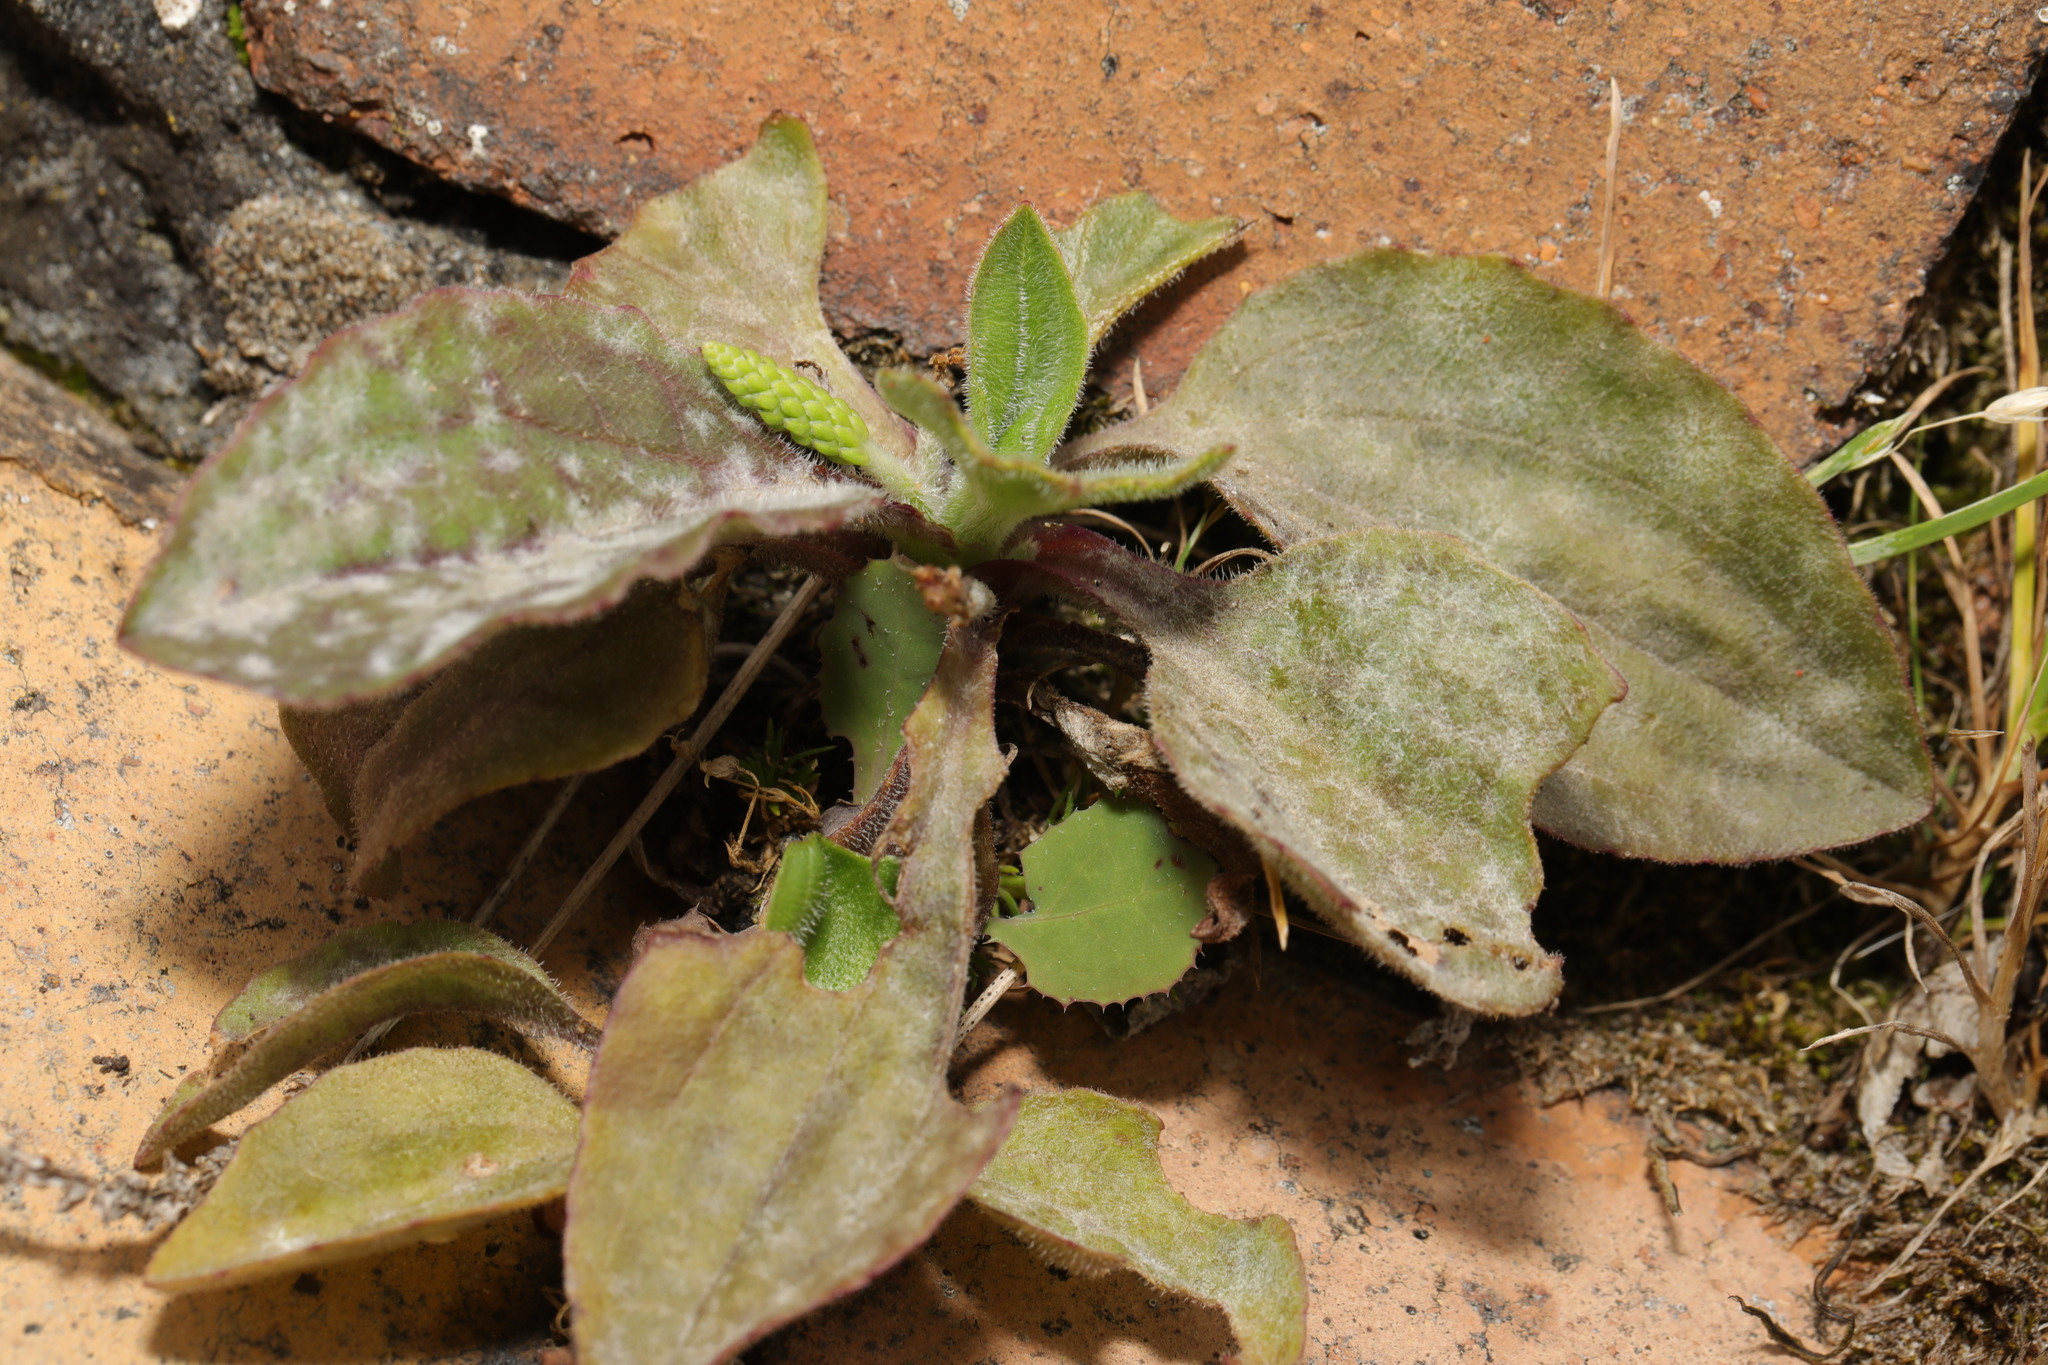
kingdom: Plantae
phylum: Tracheophyta
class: Magnoliopsida
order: Lamiales
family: Plantaginaceae
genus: Plantago
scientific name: Plantago major
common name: Common plantain
